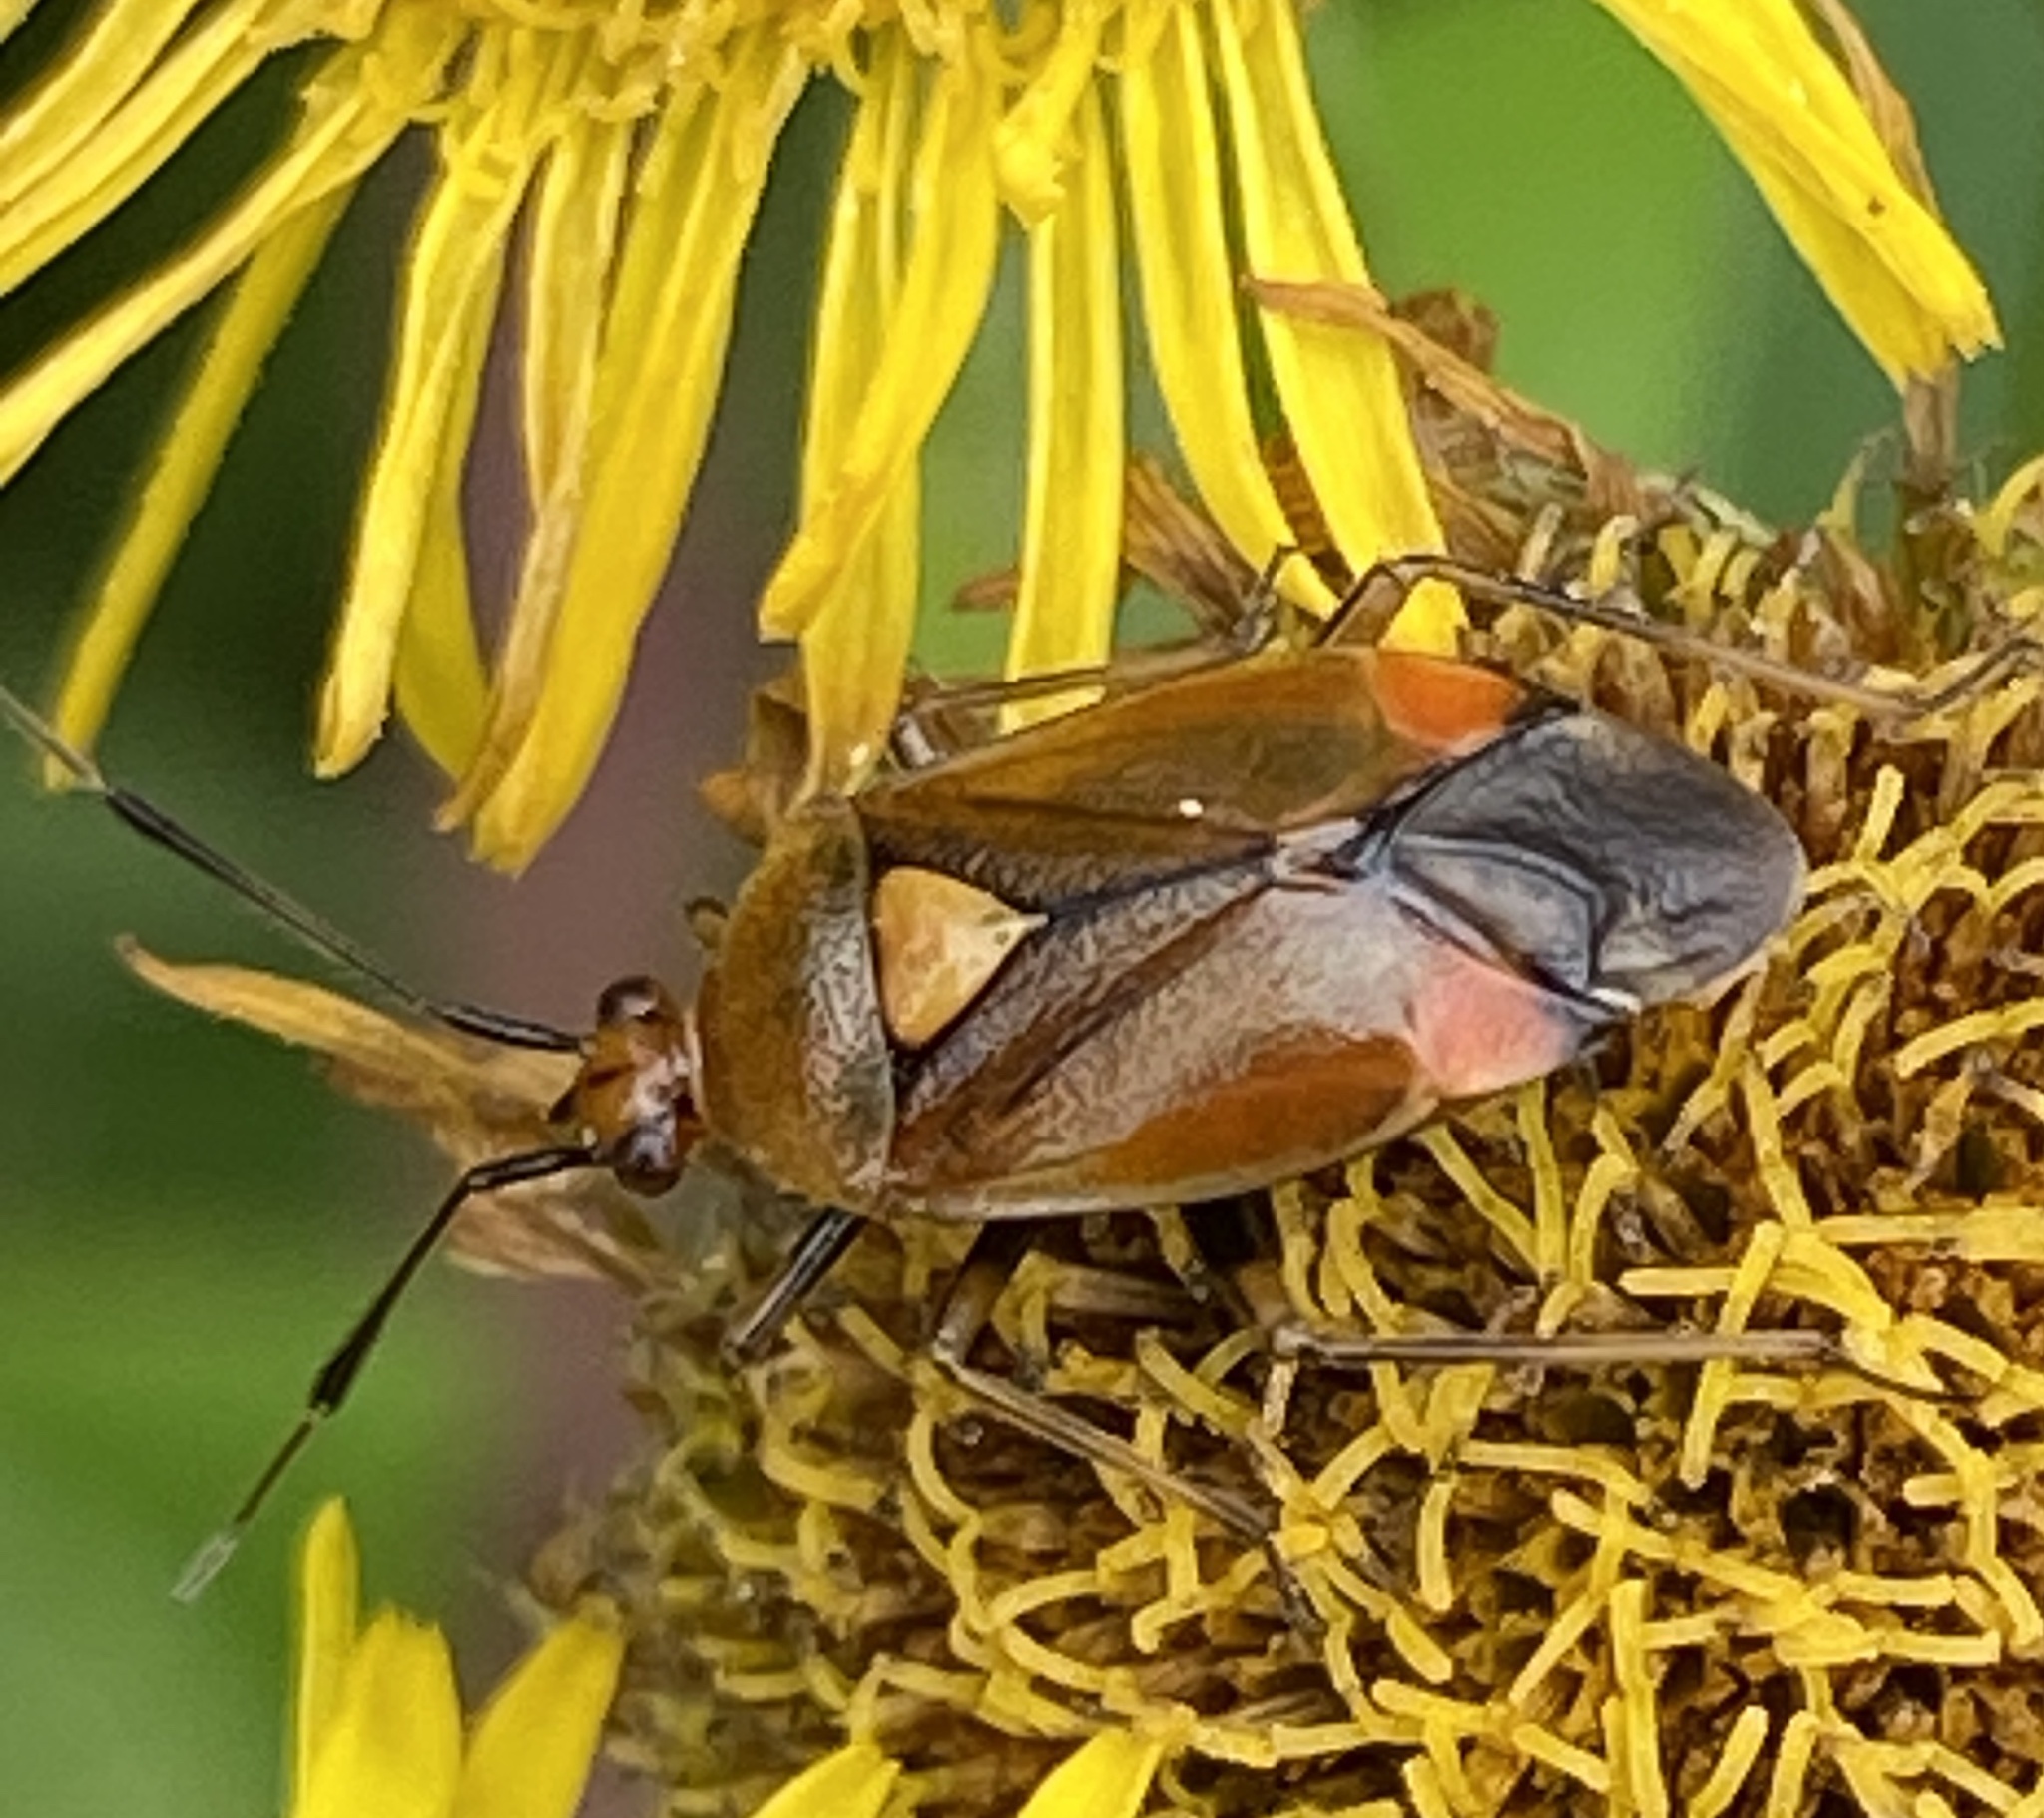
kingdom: Animalia
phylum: Arthropoda
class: Insecta
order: Hemiptera
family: Miridae
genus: Deraeocoris
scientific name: Deraeocoris ruber
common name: Plant bug
